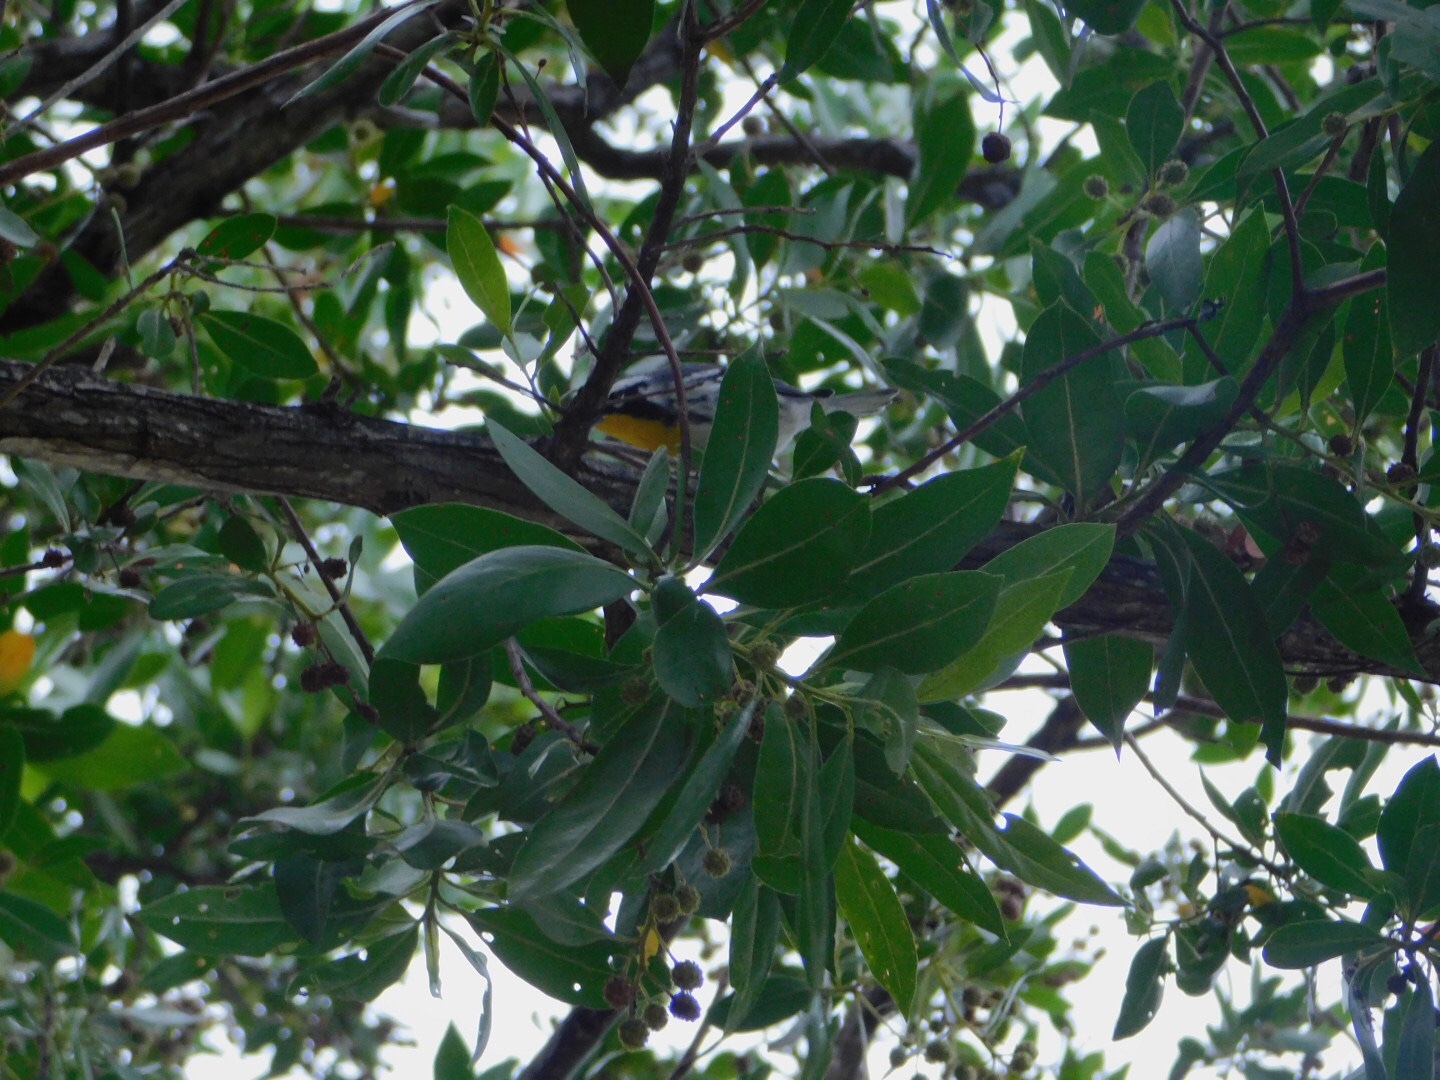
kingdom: Animalia
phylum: Chordata
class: Aves
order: Passeriformes
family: Parulidae
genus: Setophaga
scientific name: Setophaga dominica
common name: Yellow-throated warbler
